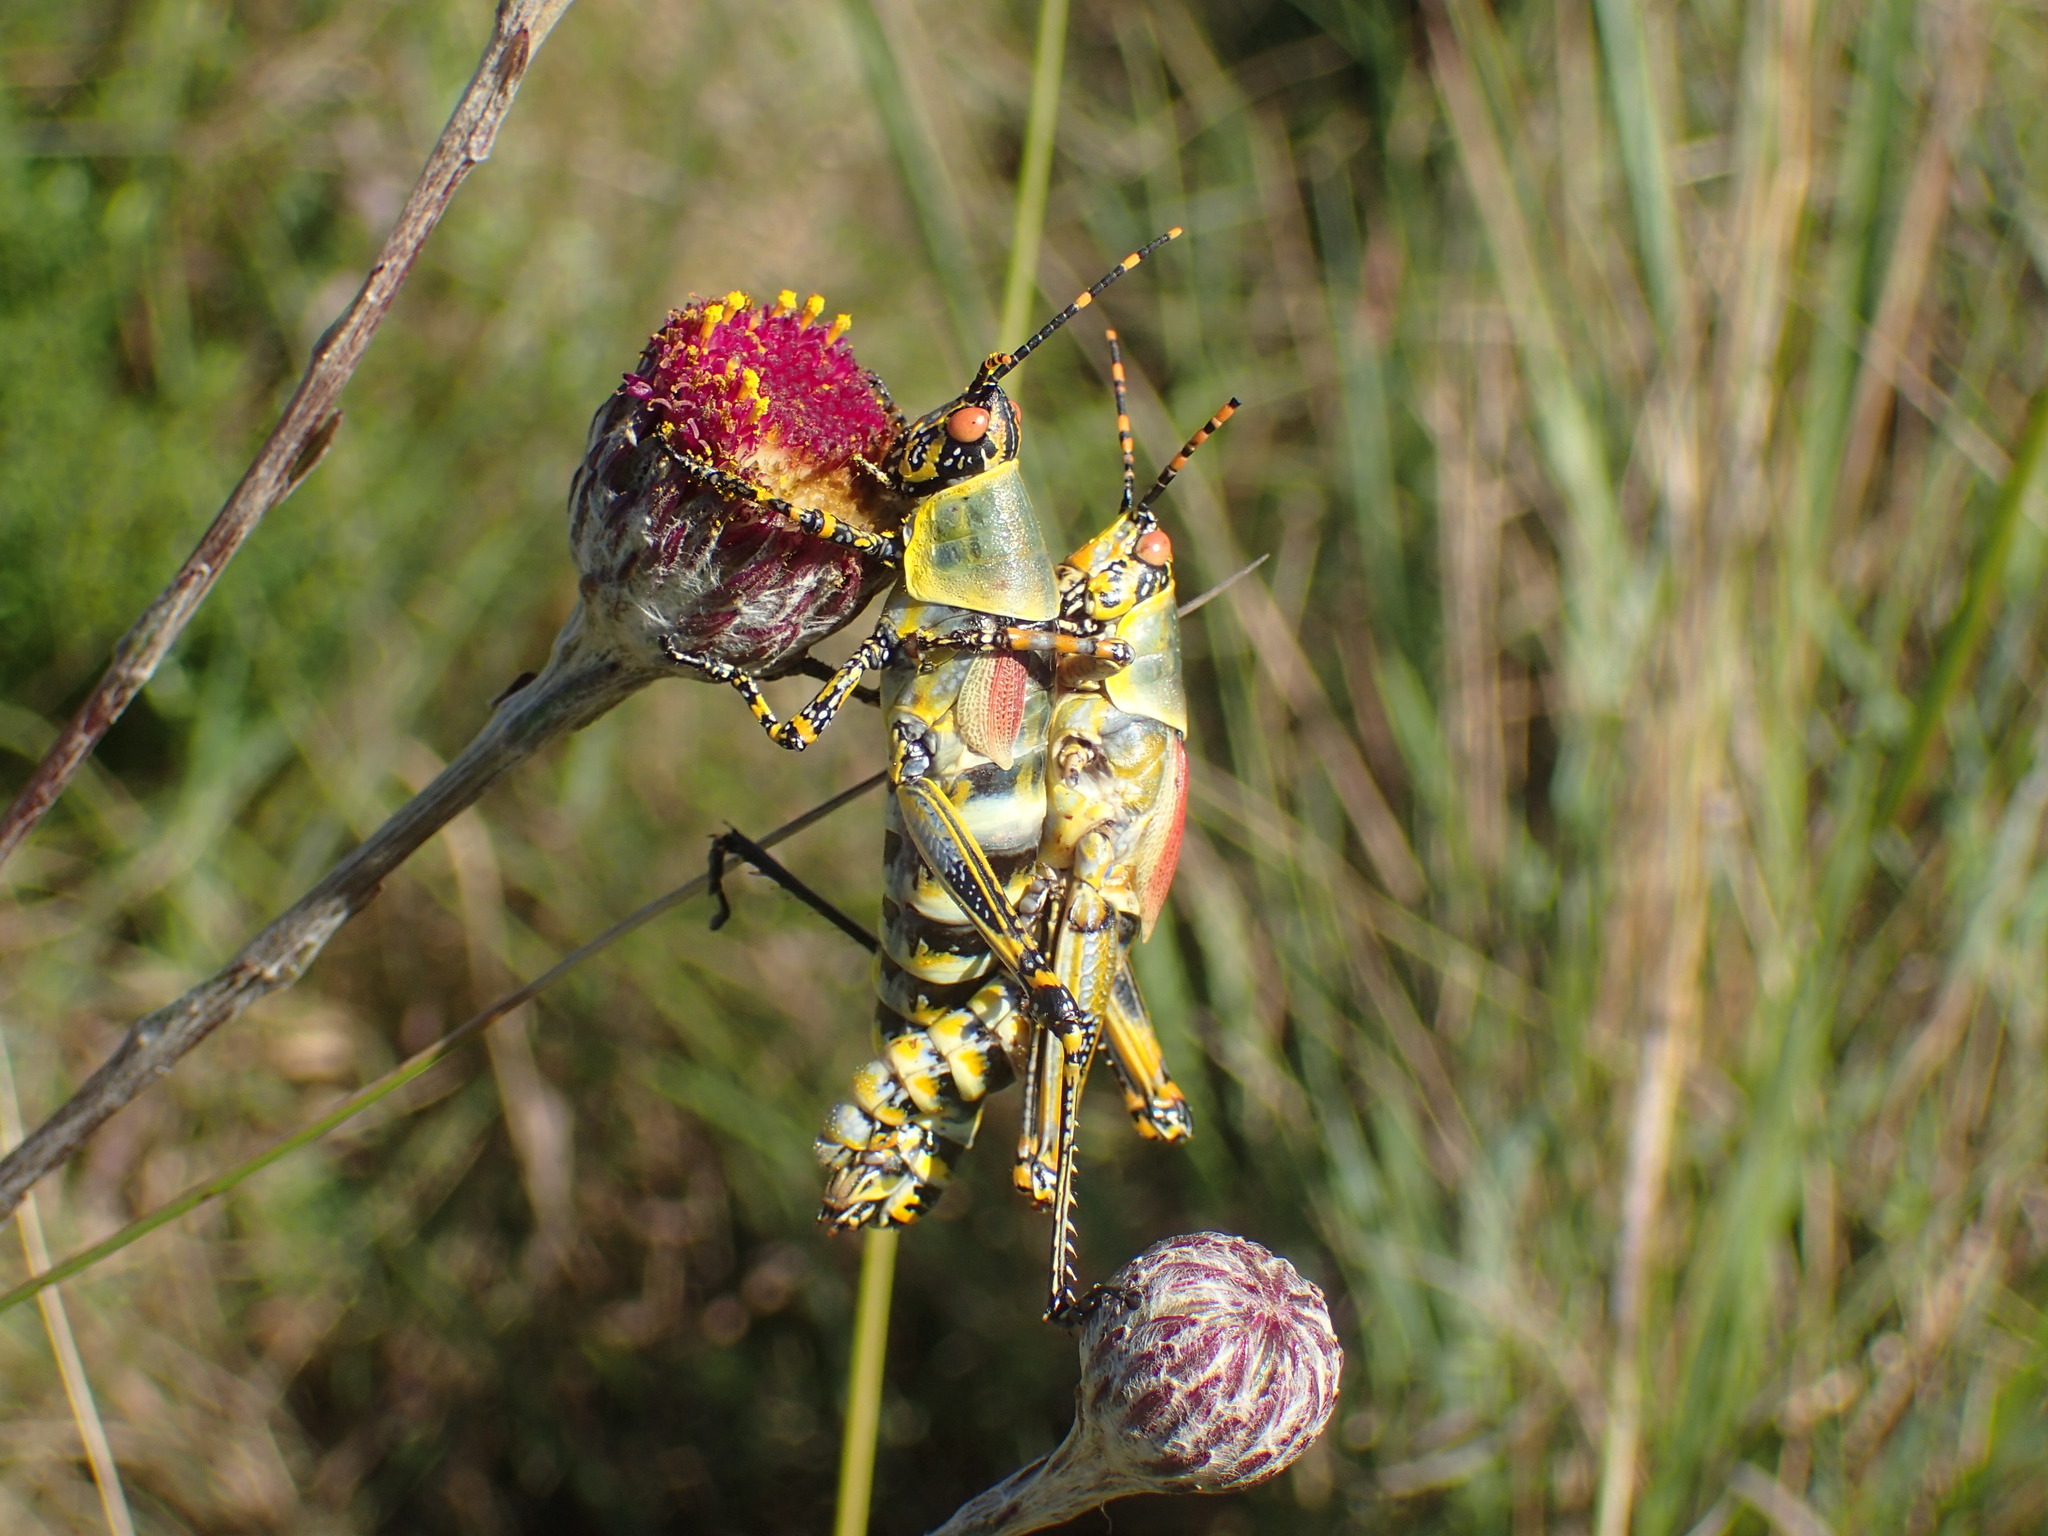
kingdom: Animalia
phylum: Arthropoda
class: Insecta
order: Orthoptera
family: Pyrgomorphidae
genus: Zonocerus
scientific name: Zonocerus elegans
